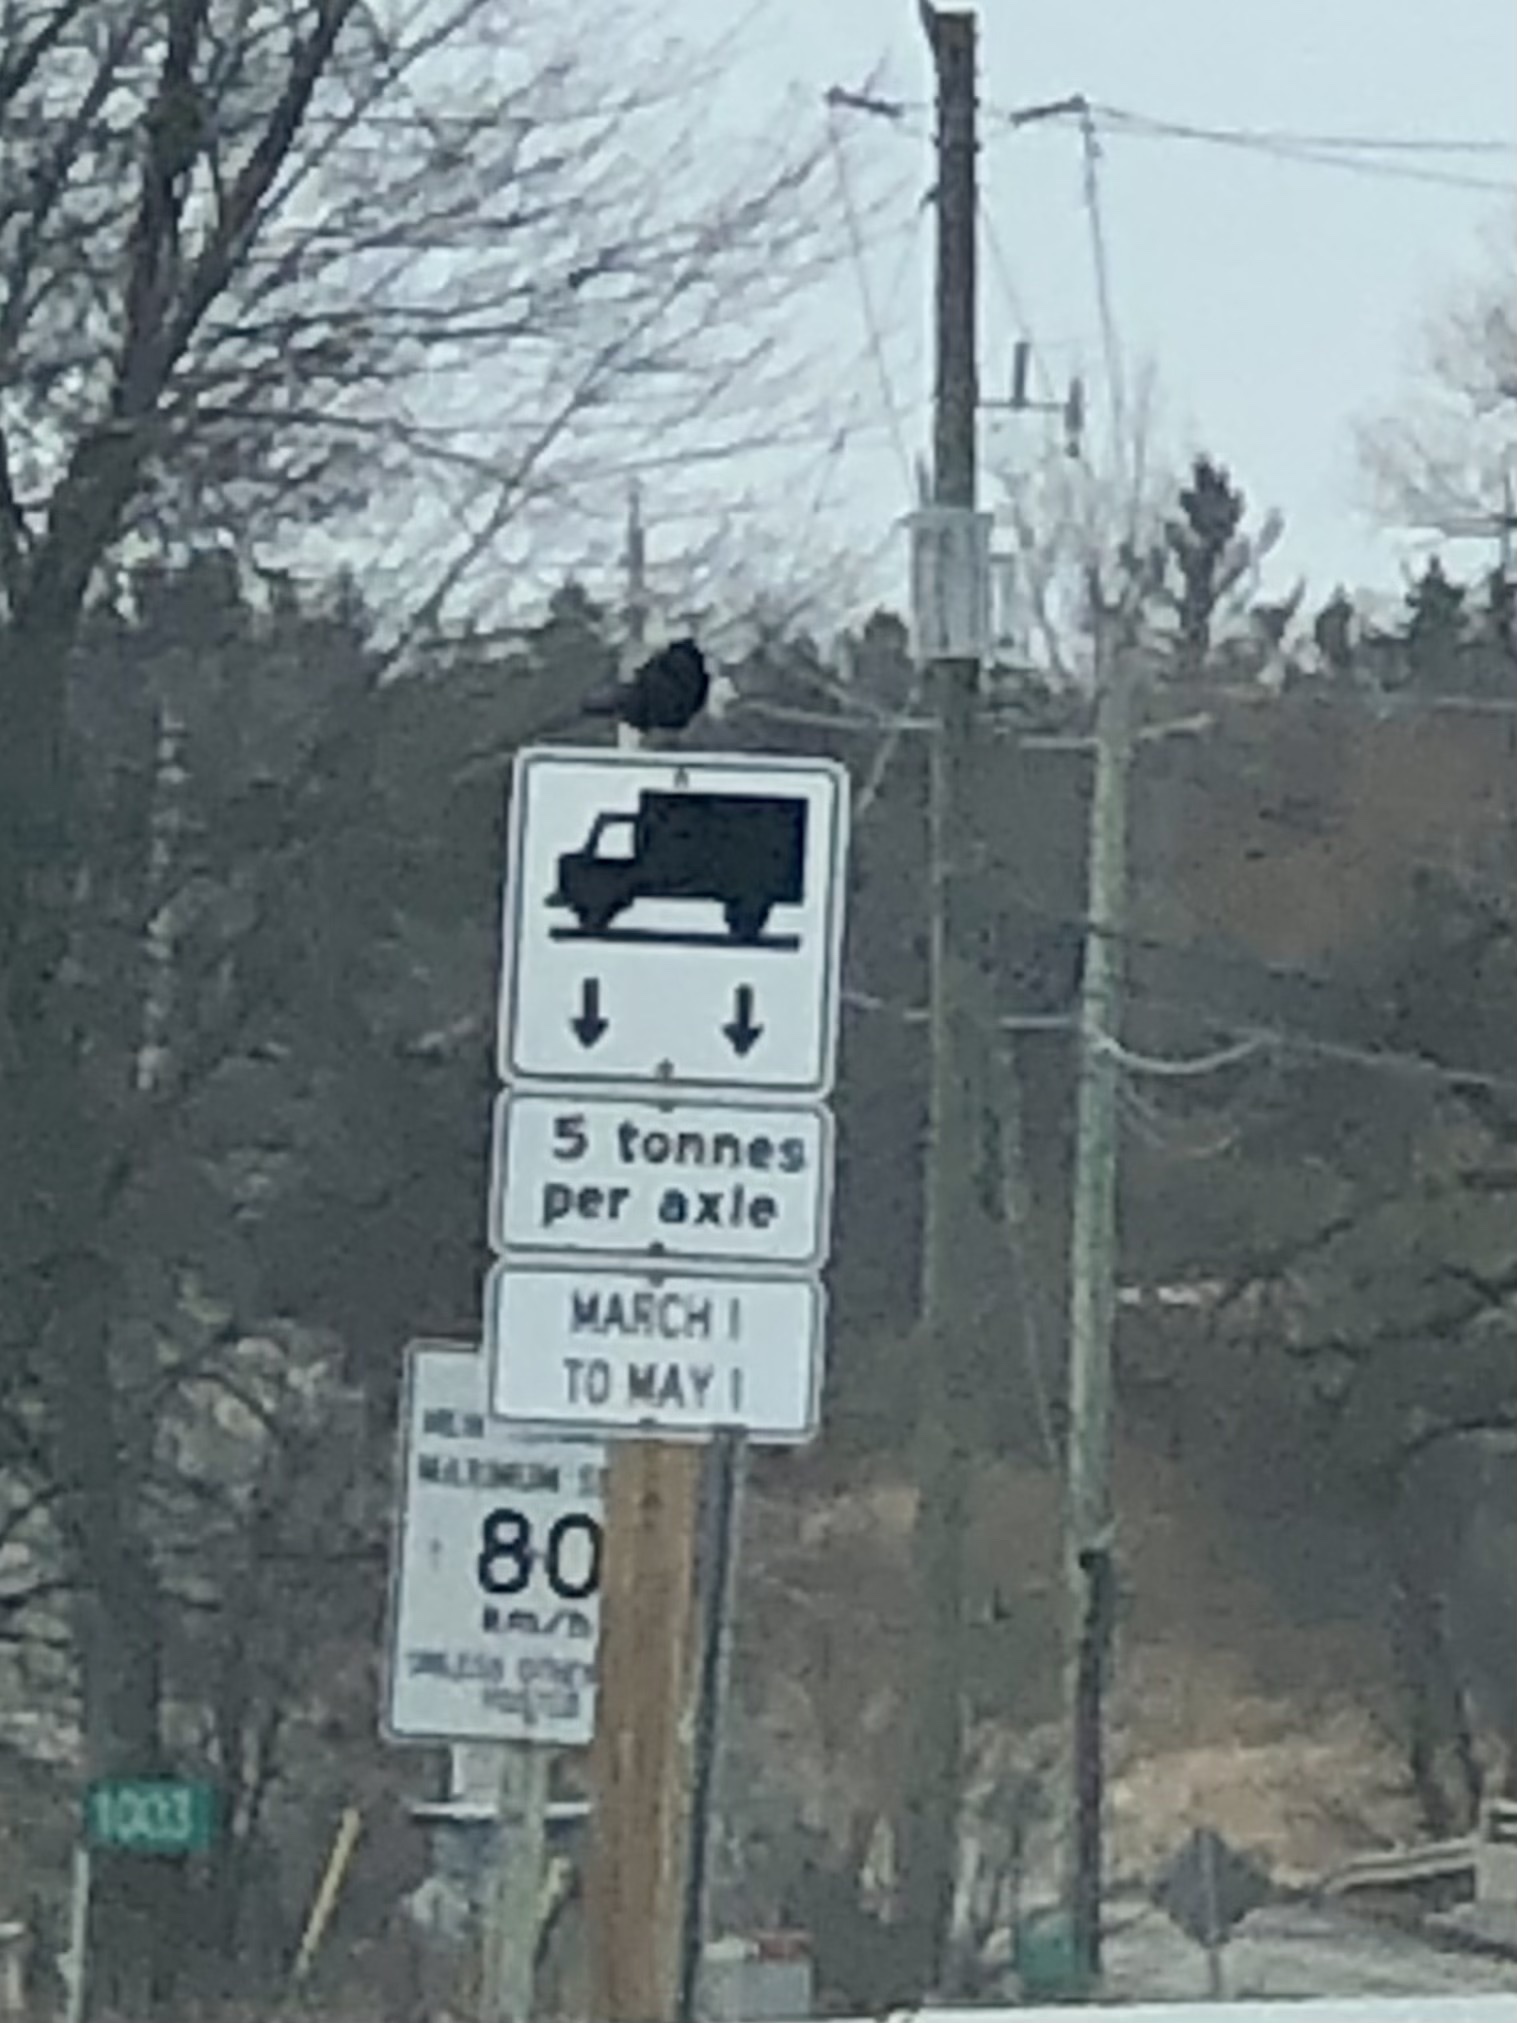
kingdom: Animalia
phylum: Chordata
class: Aves
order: Passeriformes
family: Corvidae
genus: Corvus
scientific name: Corvus brachyrhynchos
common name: American crow
